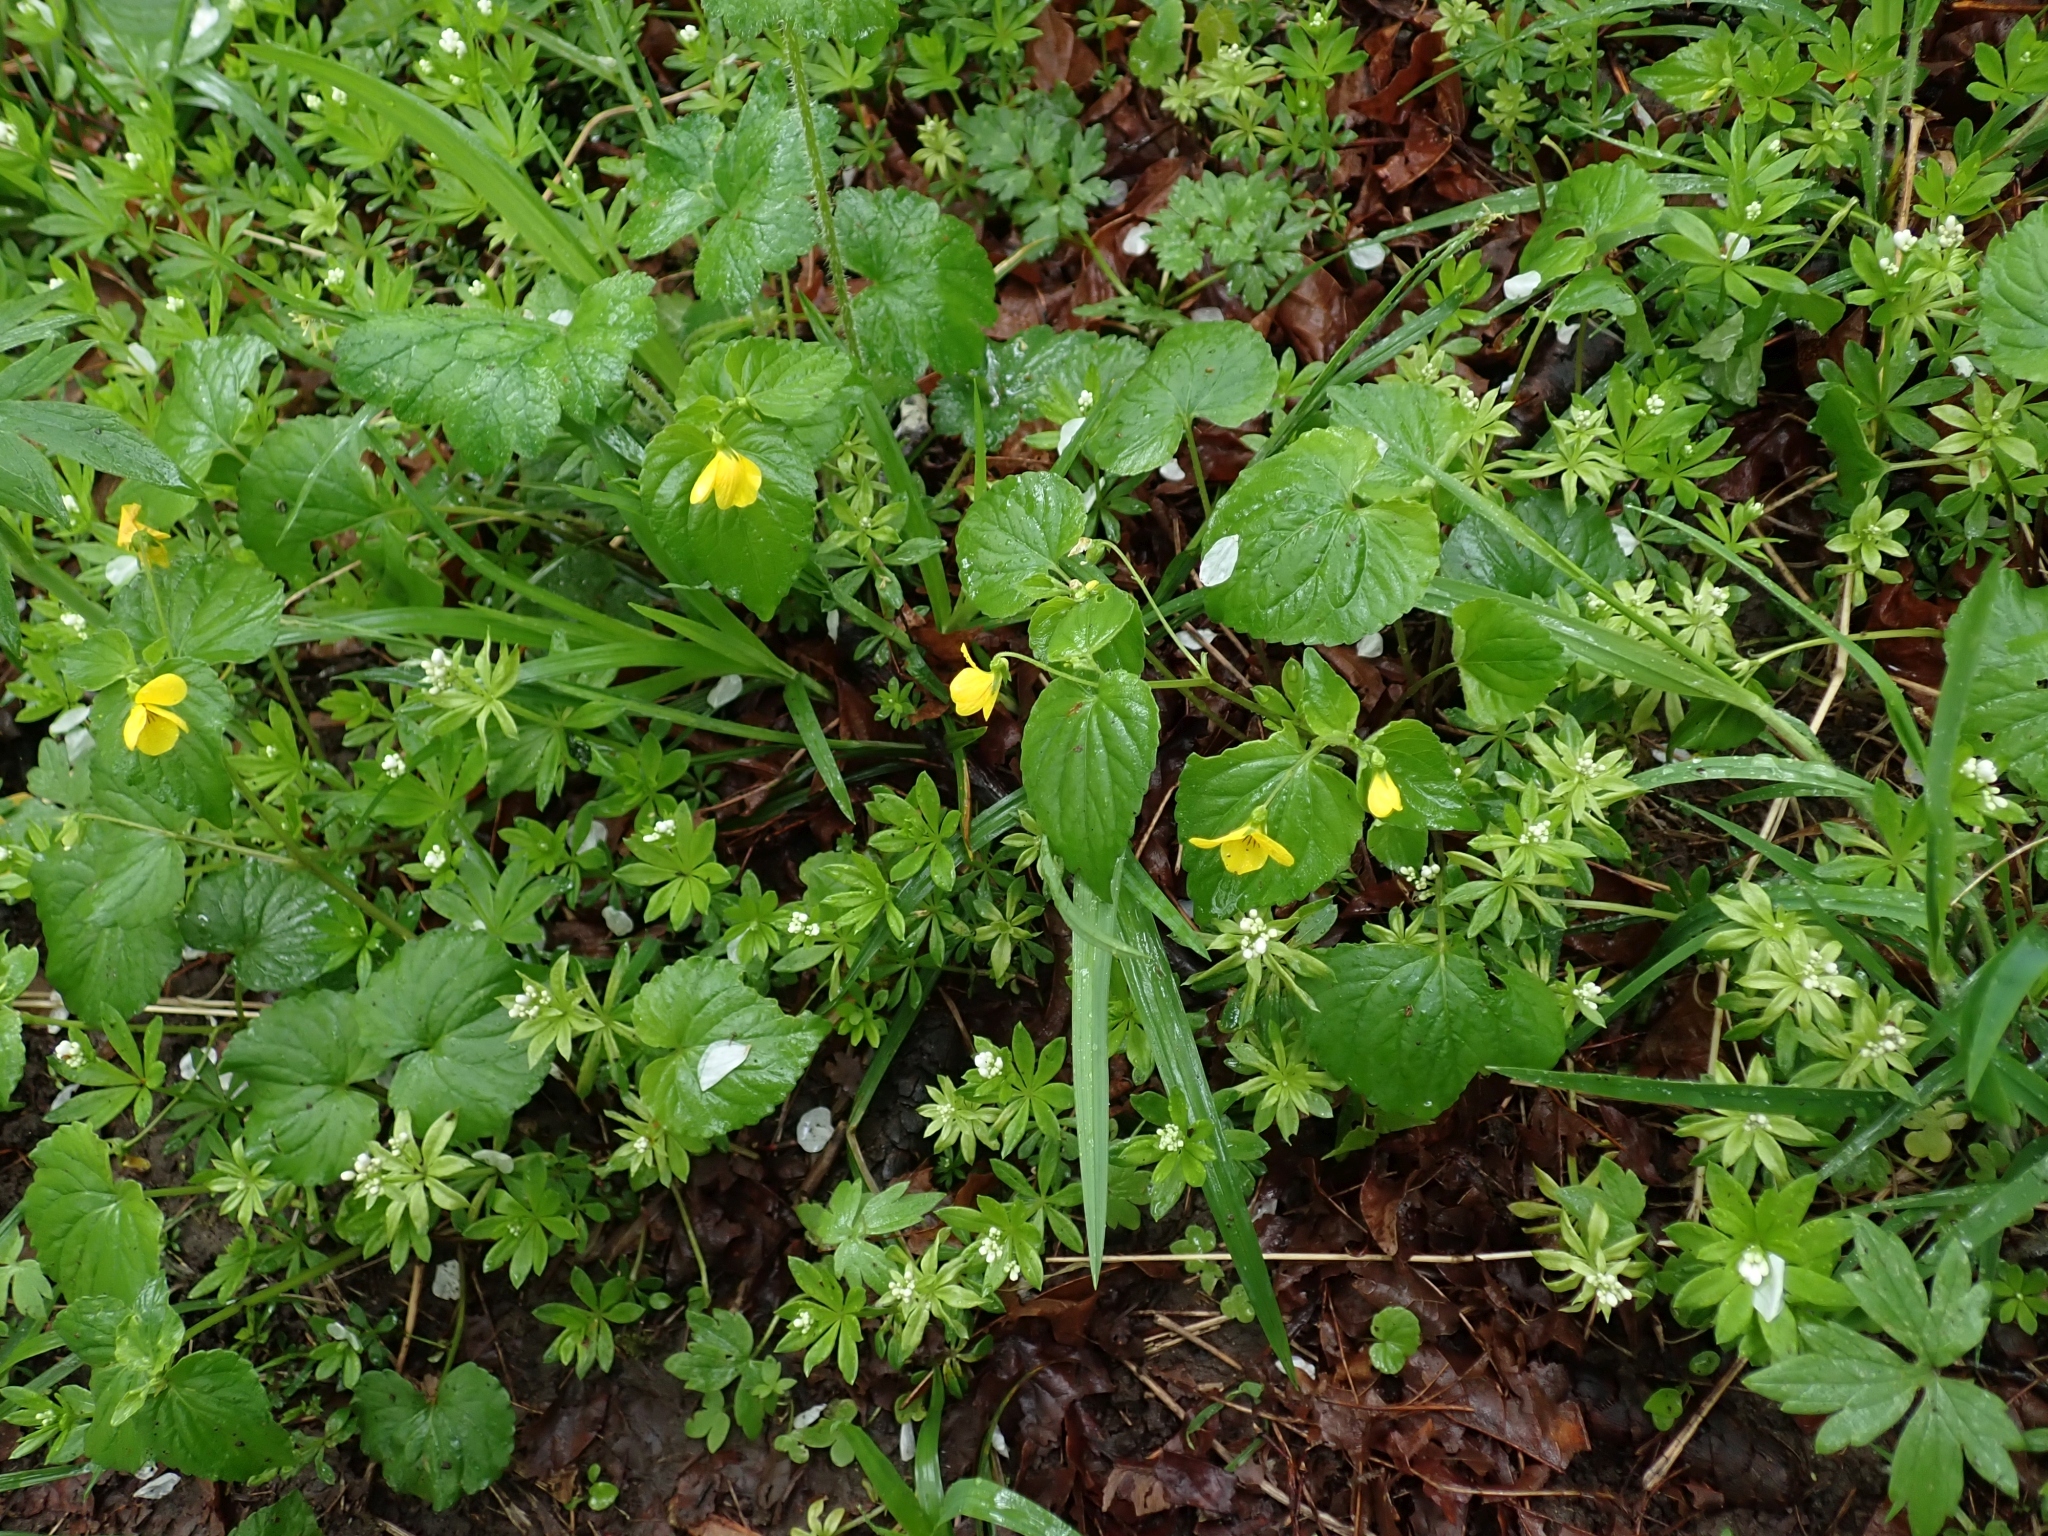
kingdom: Plantae
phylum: Tracheophyta
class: Magnoliopsida
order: Malpighiales
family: Violaceae
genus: Viola
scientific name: Viola glabella
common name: Stream violet
